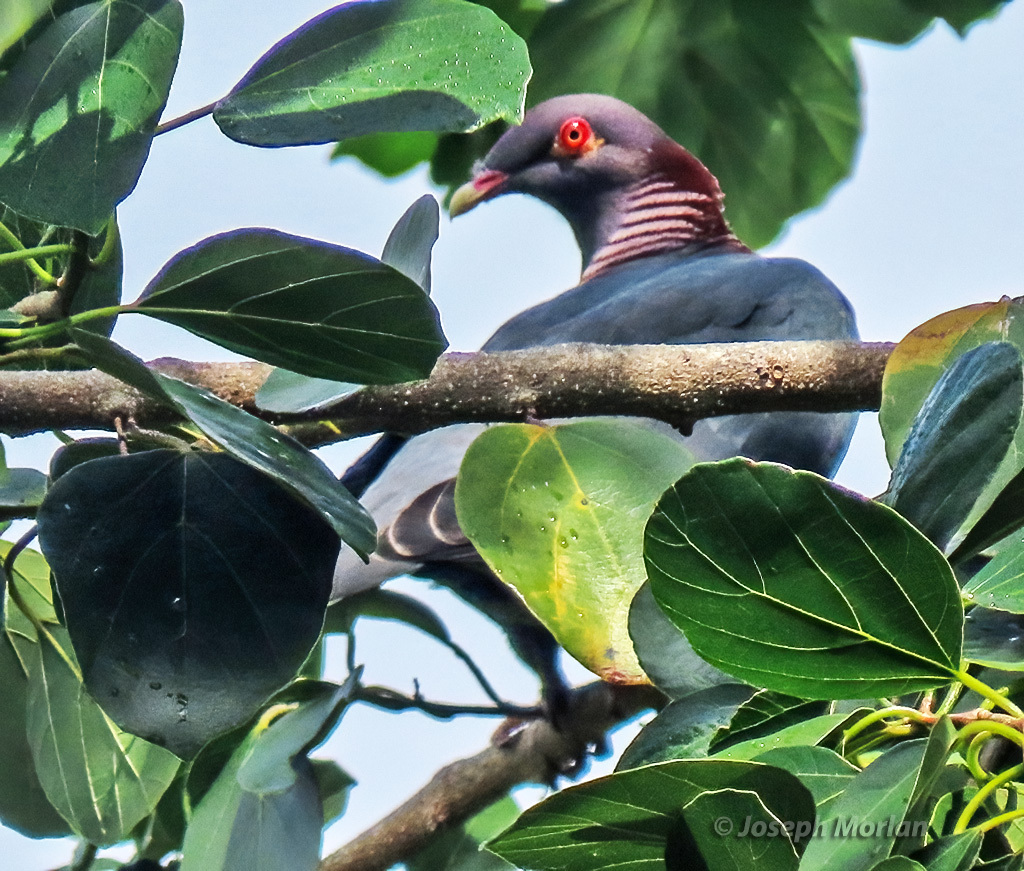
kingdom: Animalia
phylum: Chordata
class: Aves
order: Columbiformes
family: Columbidae
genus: Patagioenas
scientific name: Patagioenas squamosa
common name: Scaly-naped pigeon
